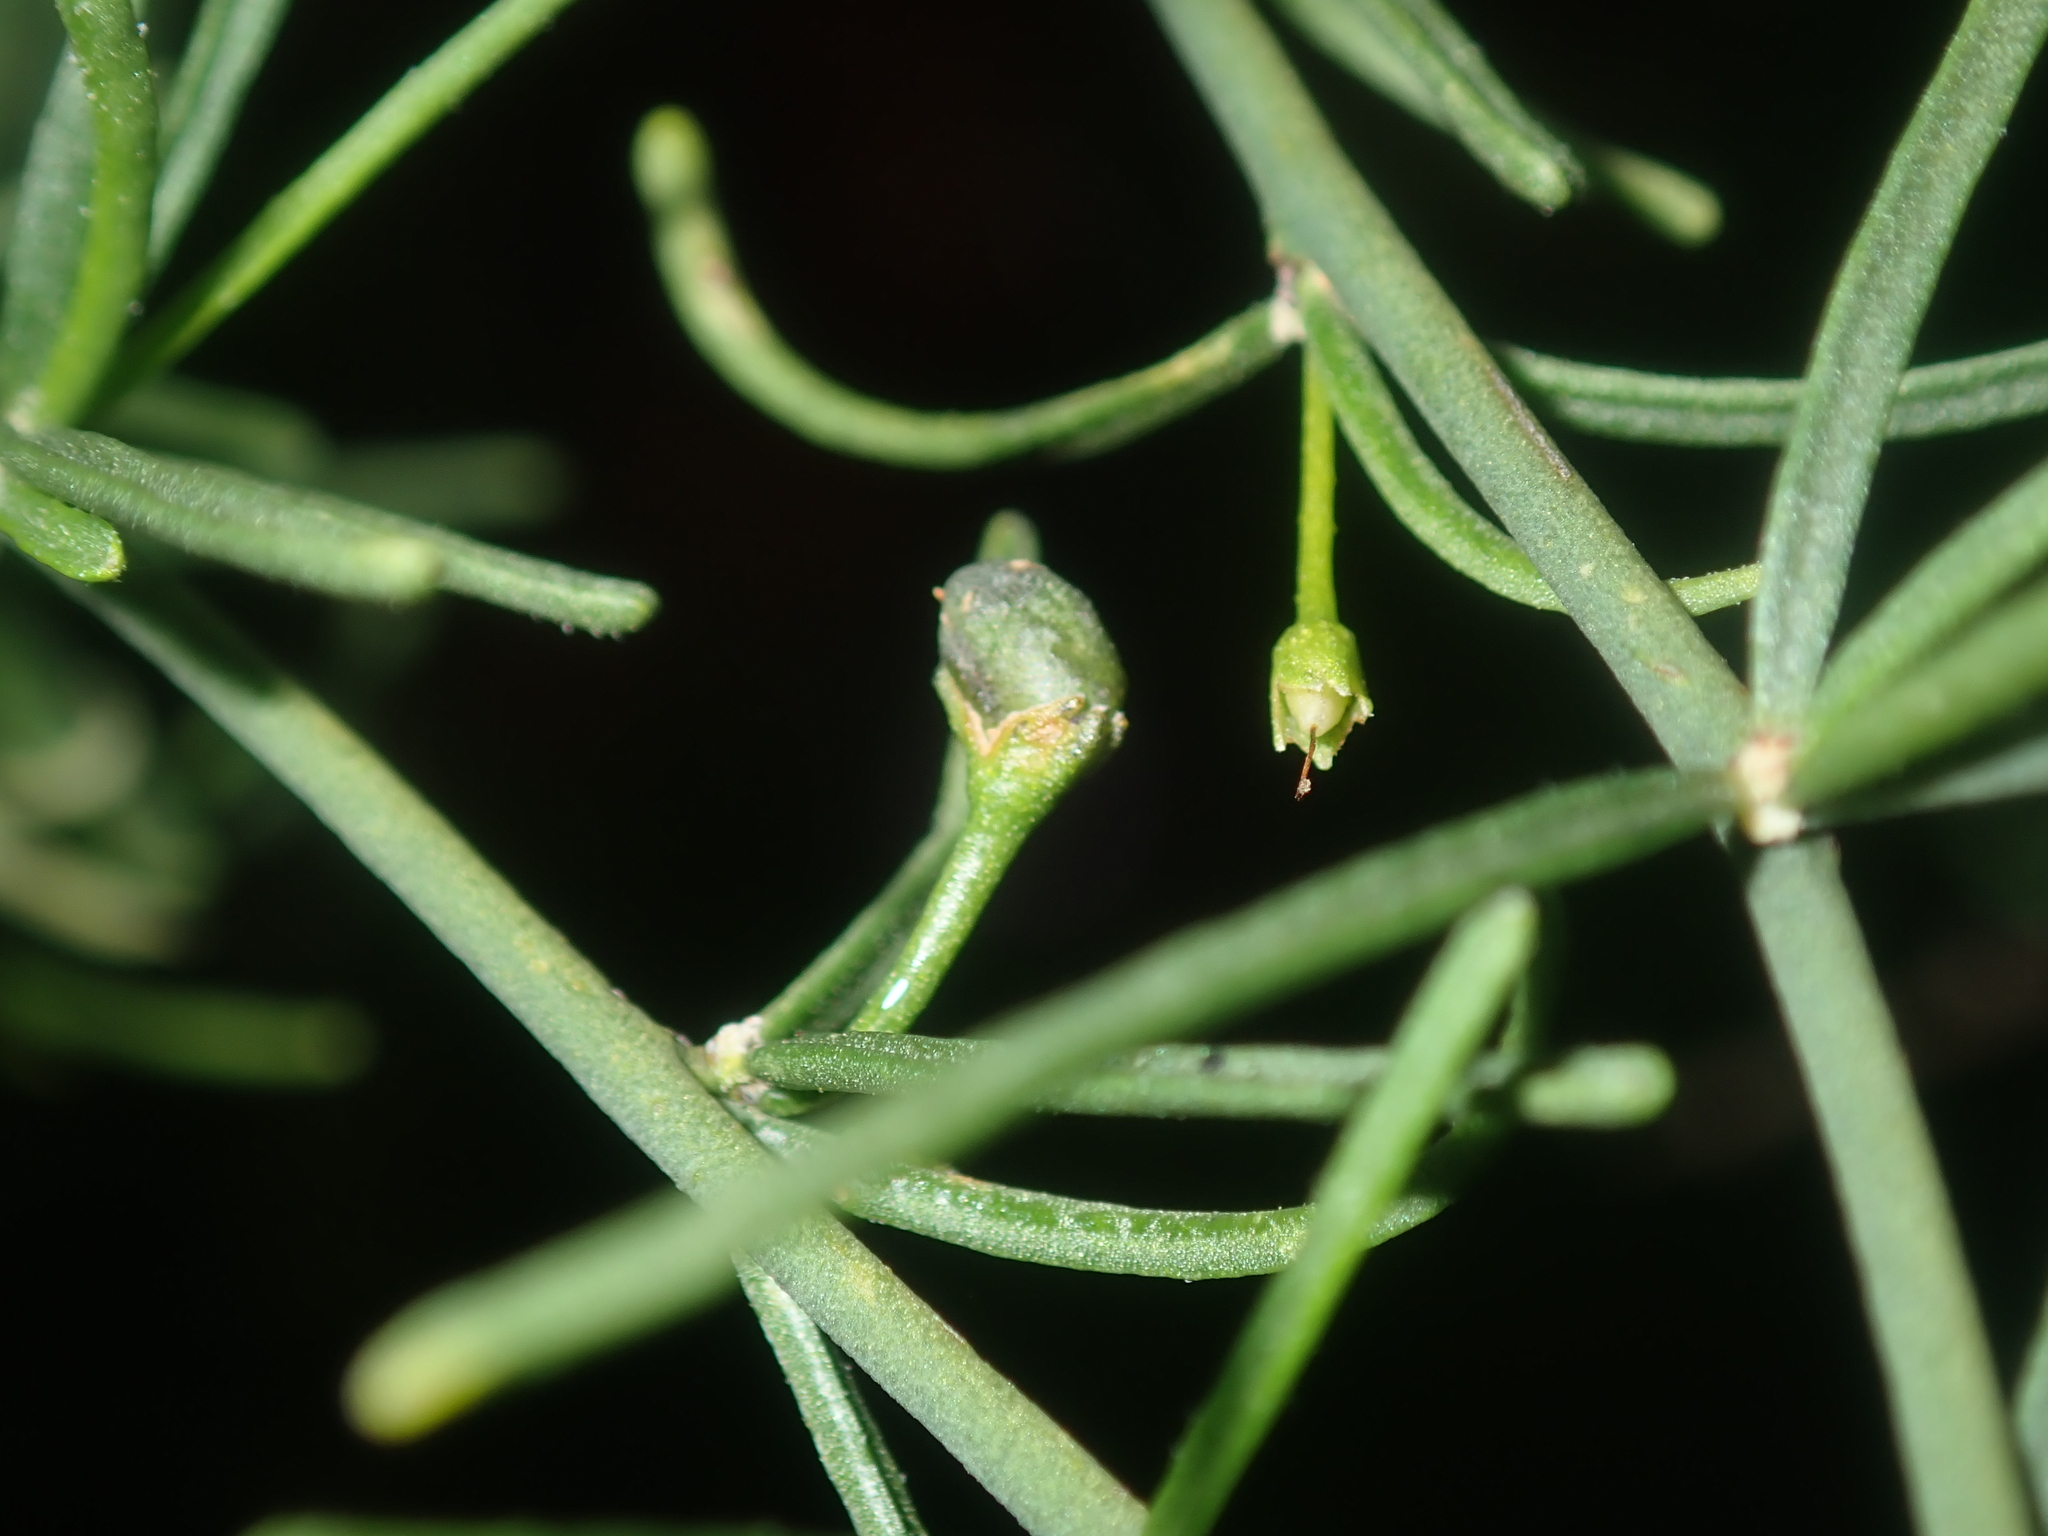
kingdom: Plantae
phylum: Tracheophyta
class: Magnoliopsida
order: Solanales
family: Solanaceae
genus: Anthocercis
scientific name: Anthocercis genistoides
